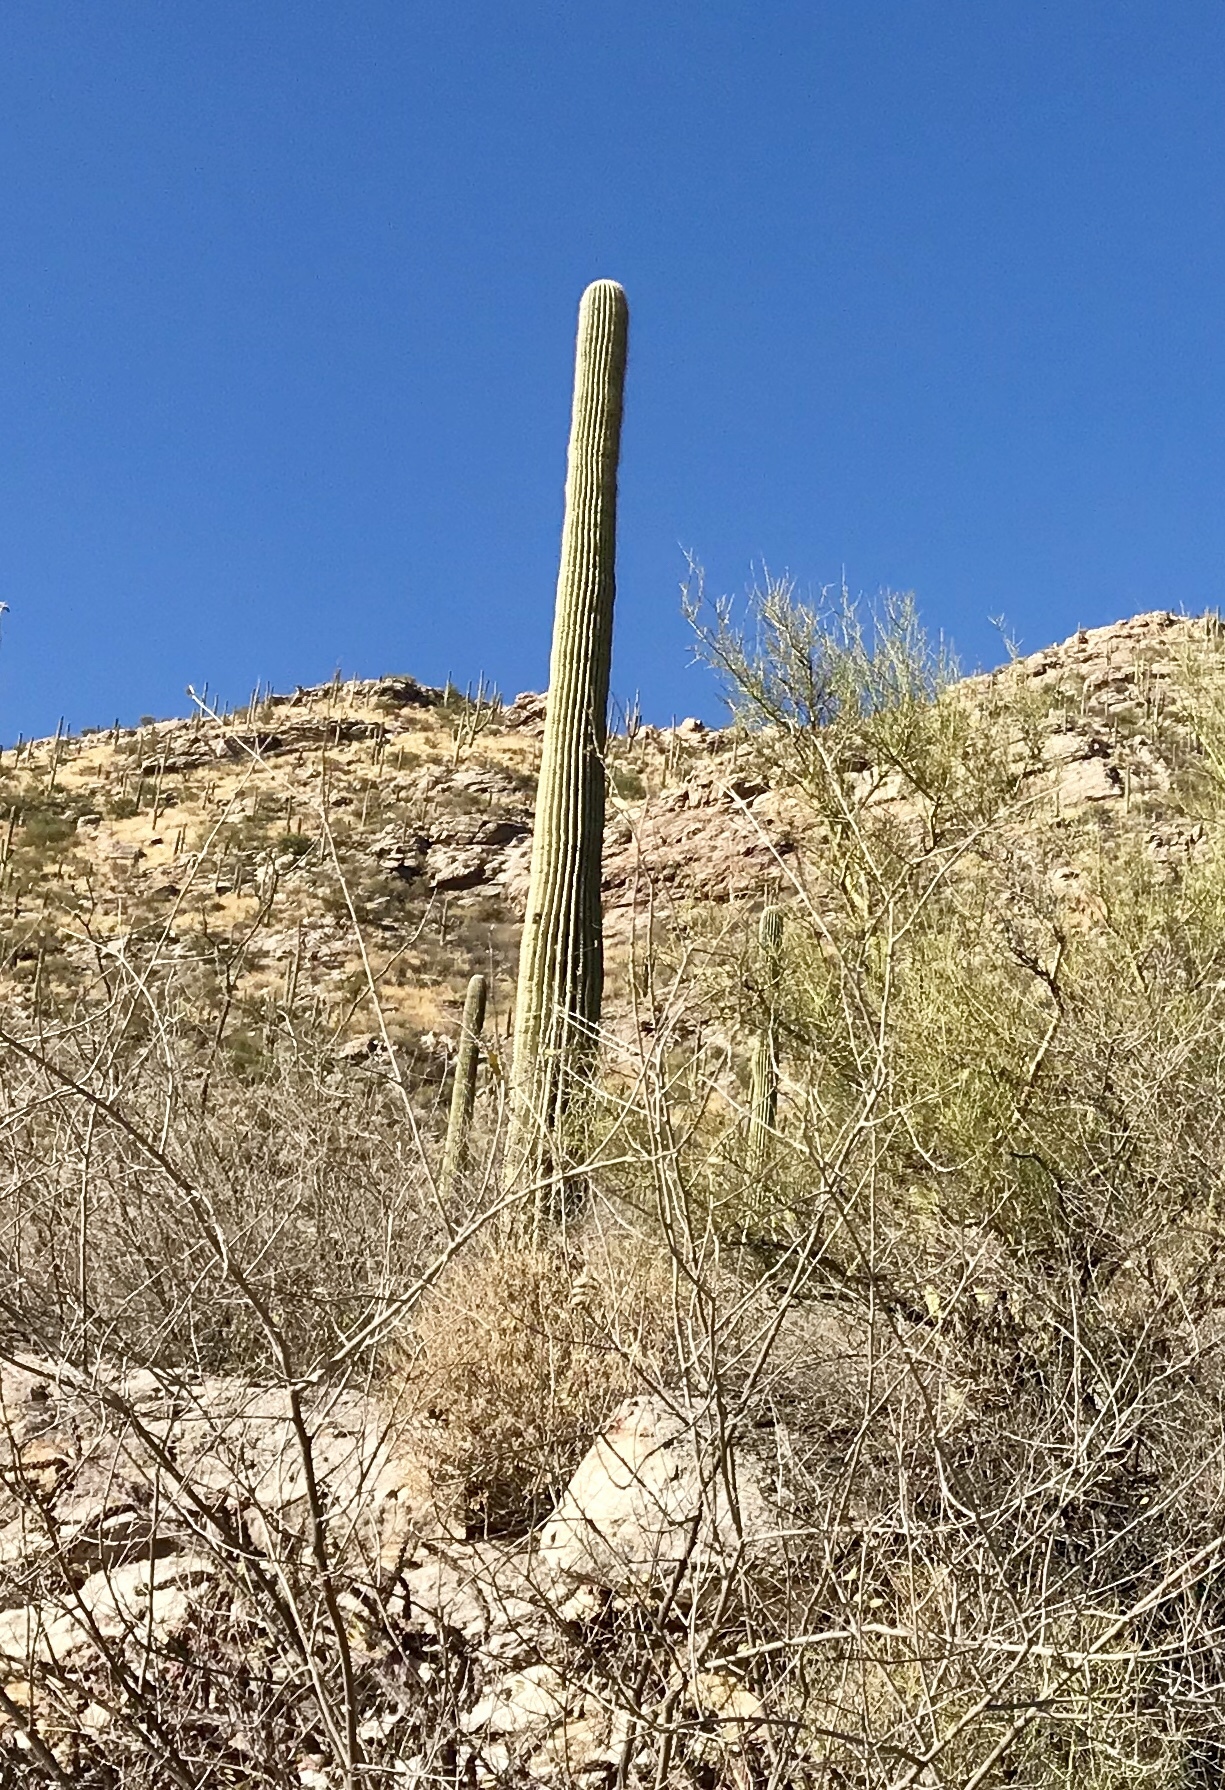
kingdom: Plantae
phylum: Tracheophyta
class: Magnoliopsida
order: Caryophyllales
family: Cactaceae
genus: Carnegiea
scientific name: Carnegiea gigantea
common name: Saguaro
